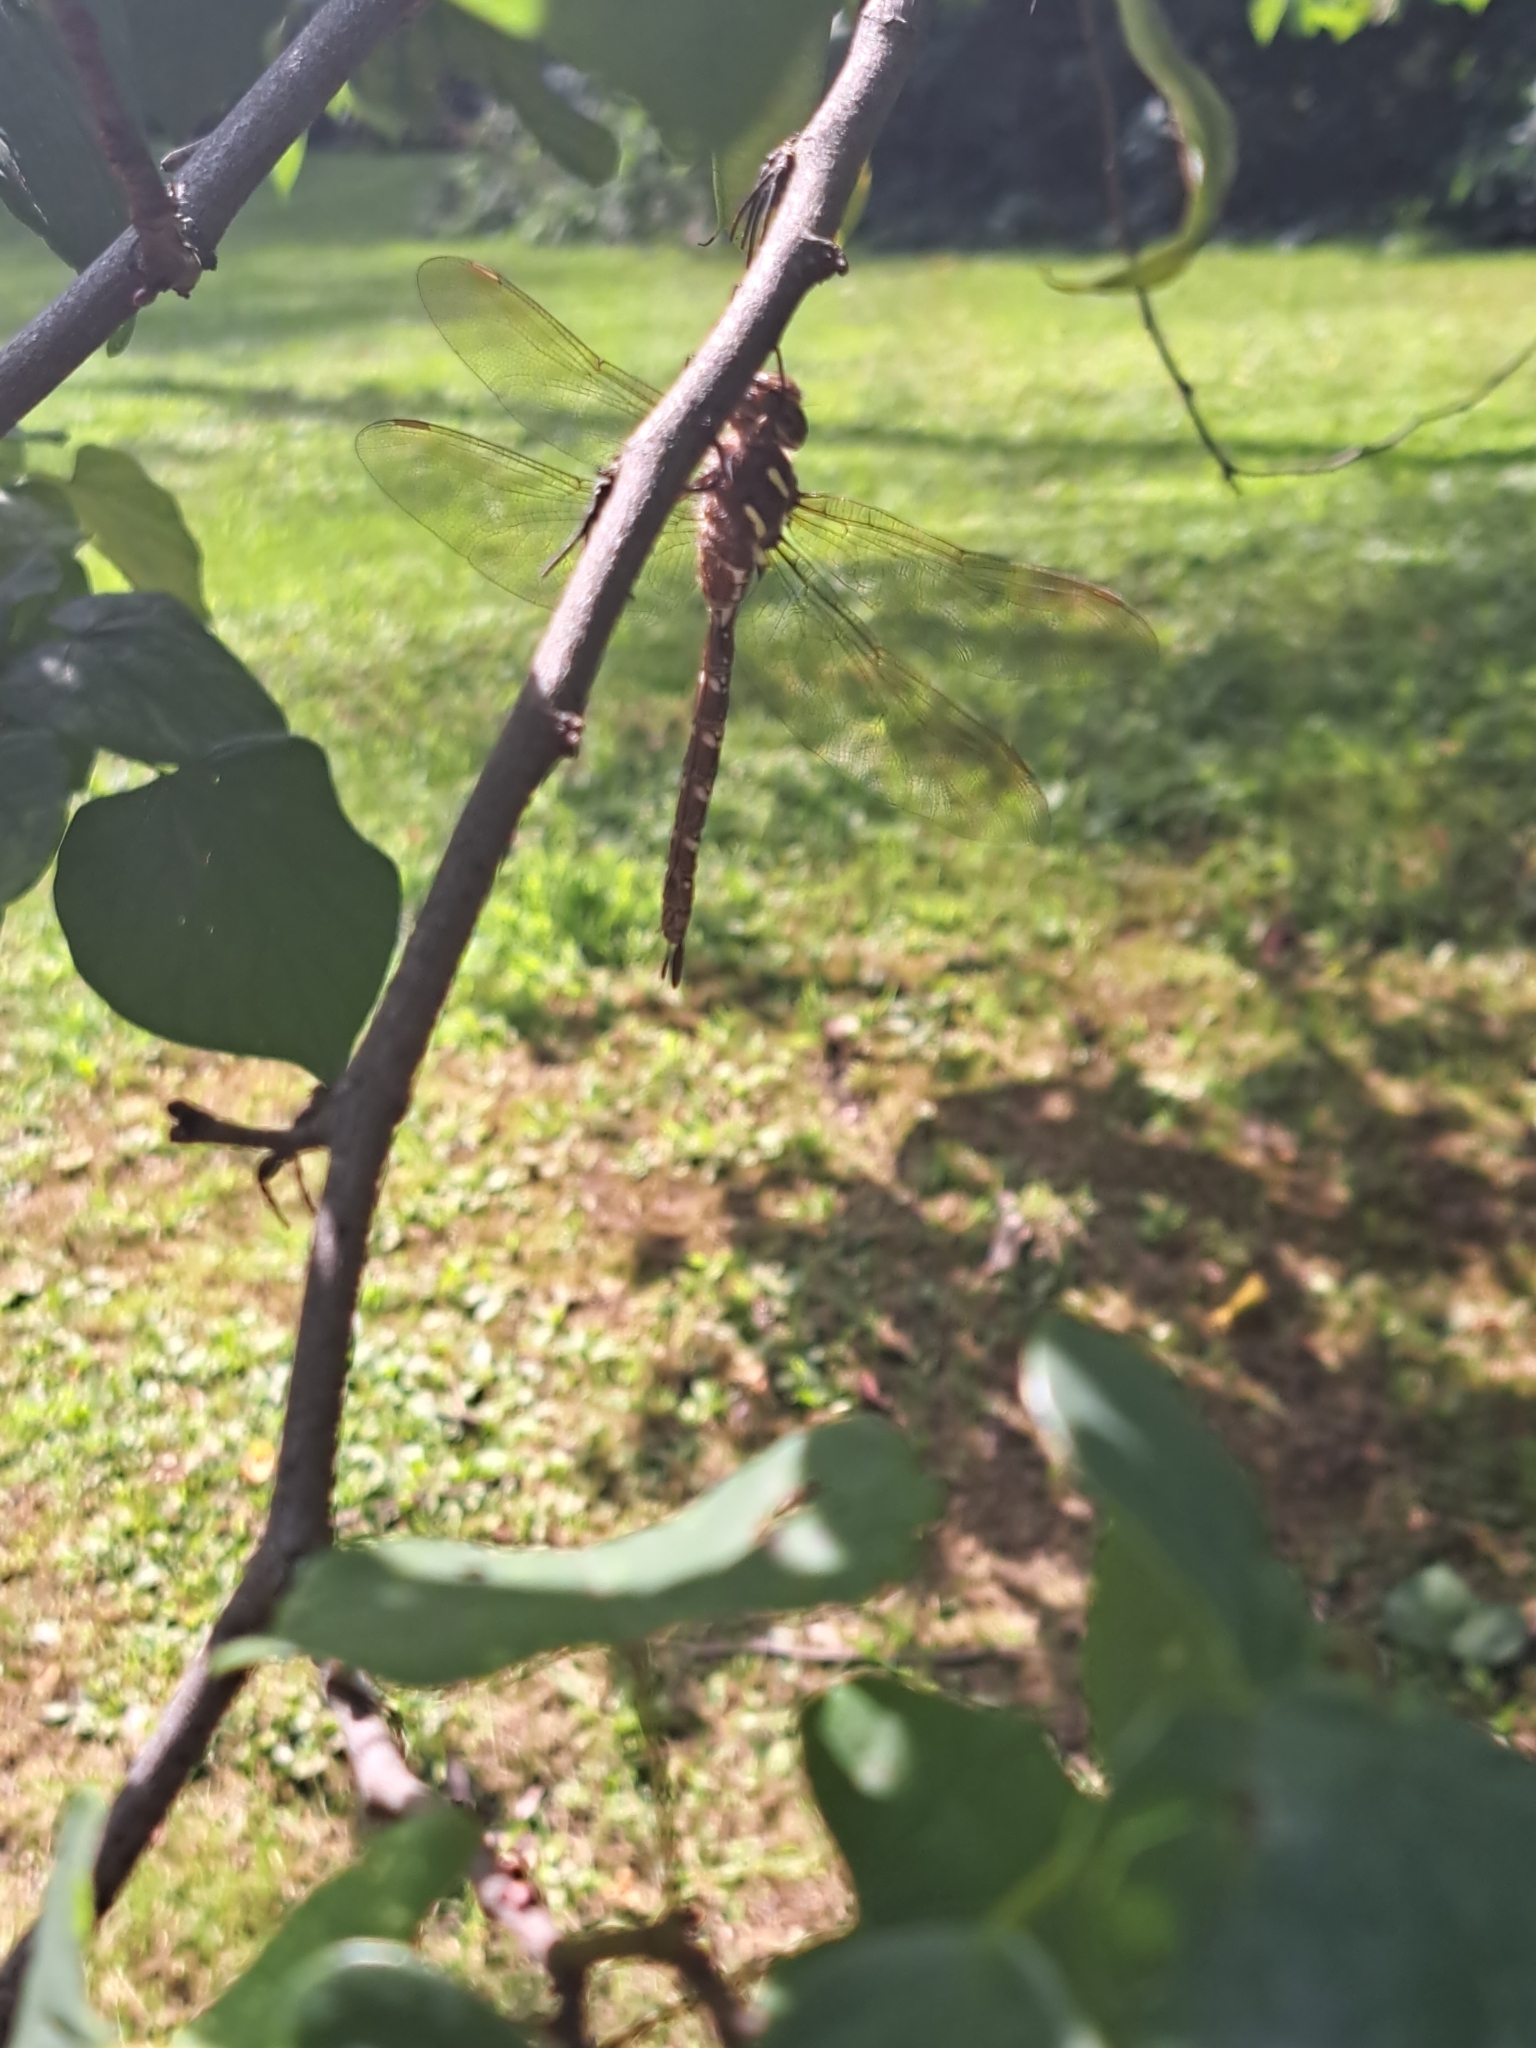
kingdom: Animalia
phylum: Arthropoda
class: Insecta
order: Odonata
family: Aeshnidae
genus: Aeshna
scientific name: Aeshna umbrosa
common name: Shadow darner
